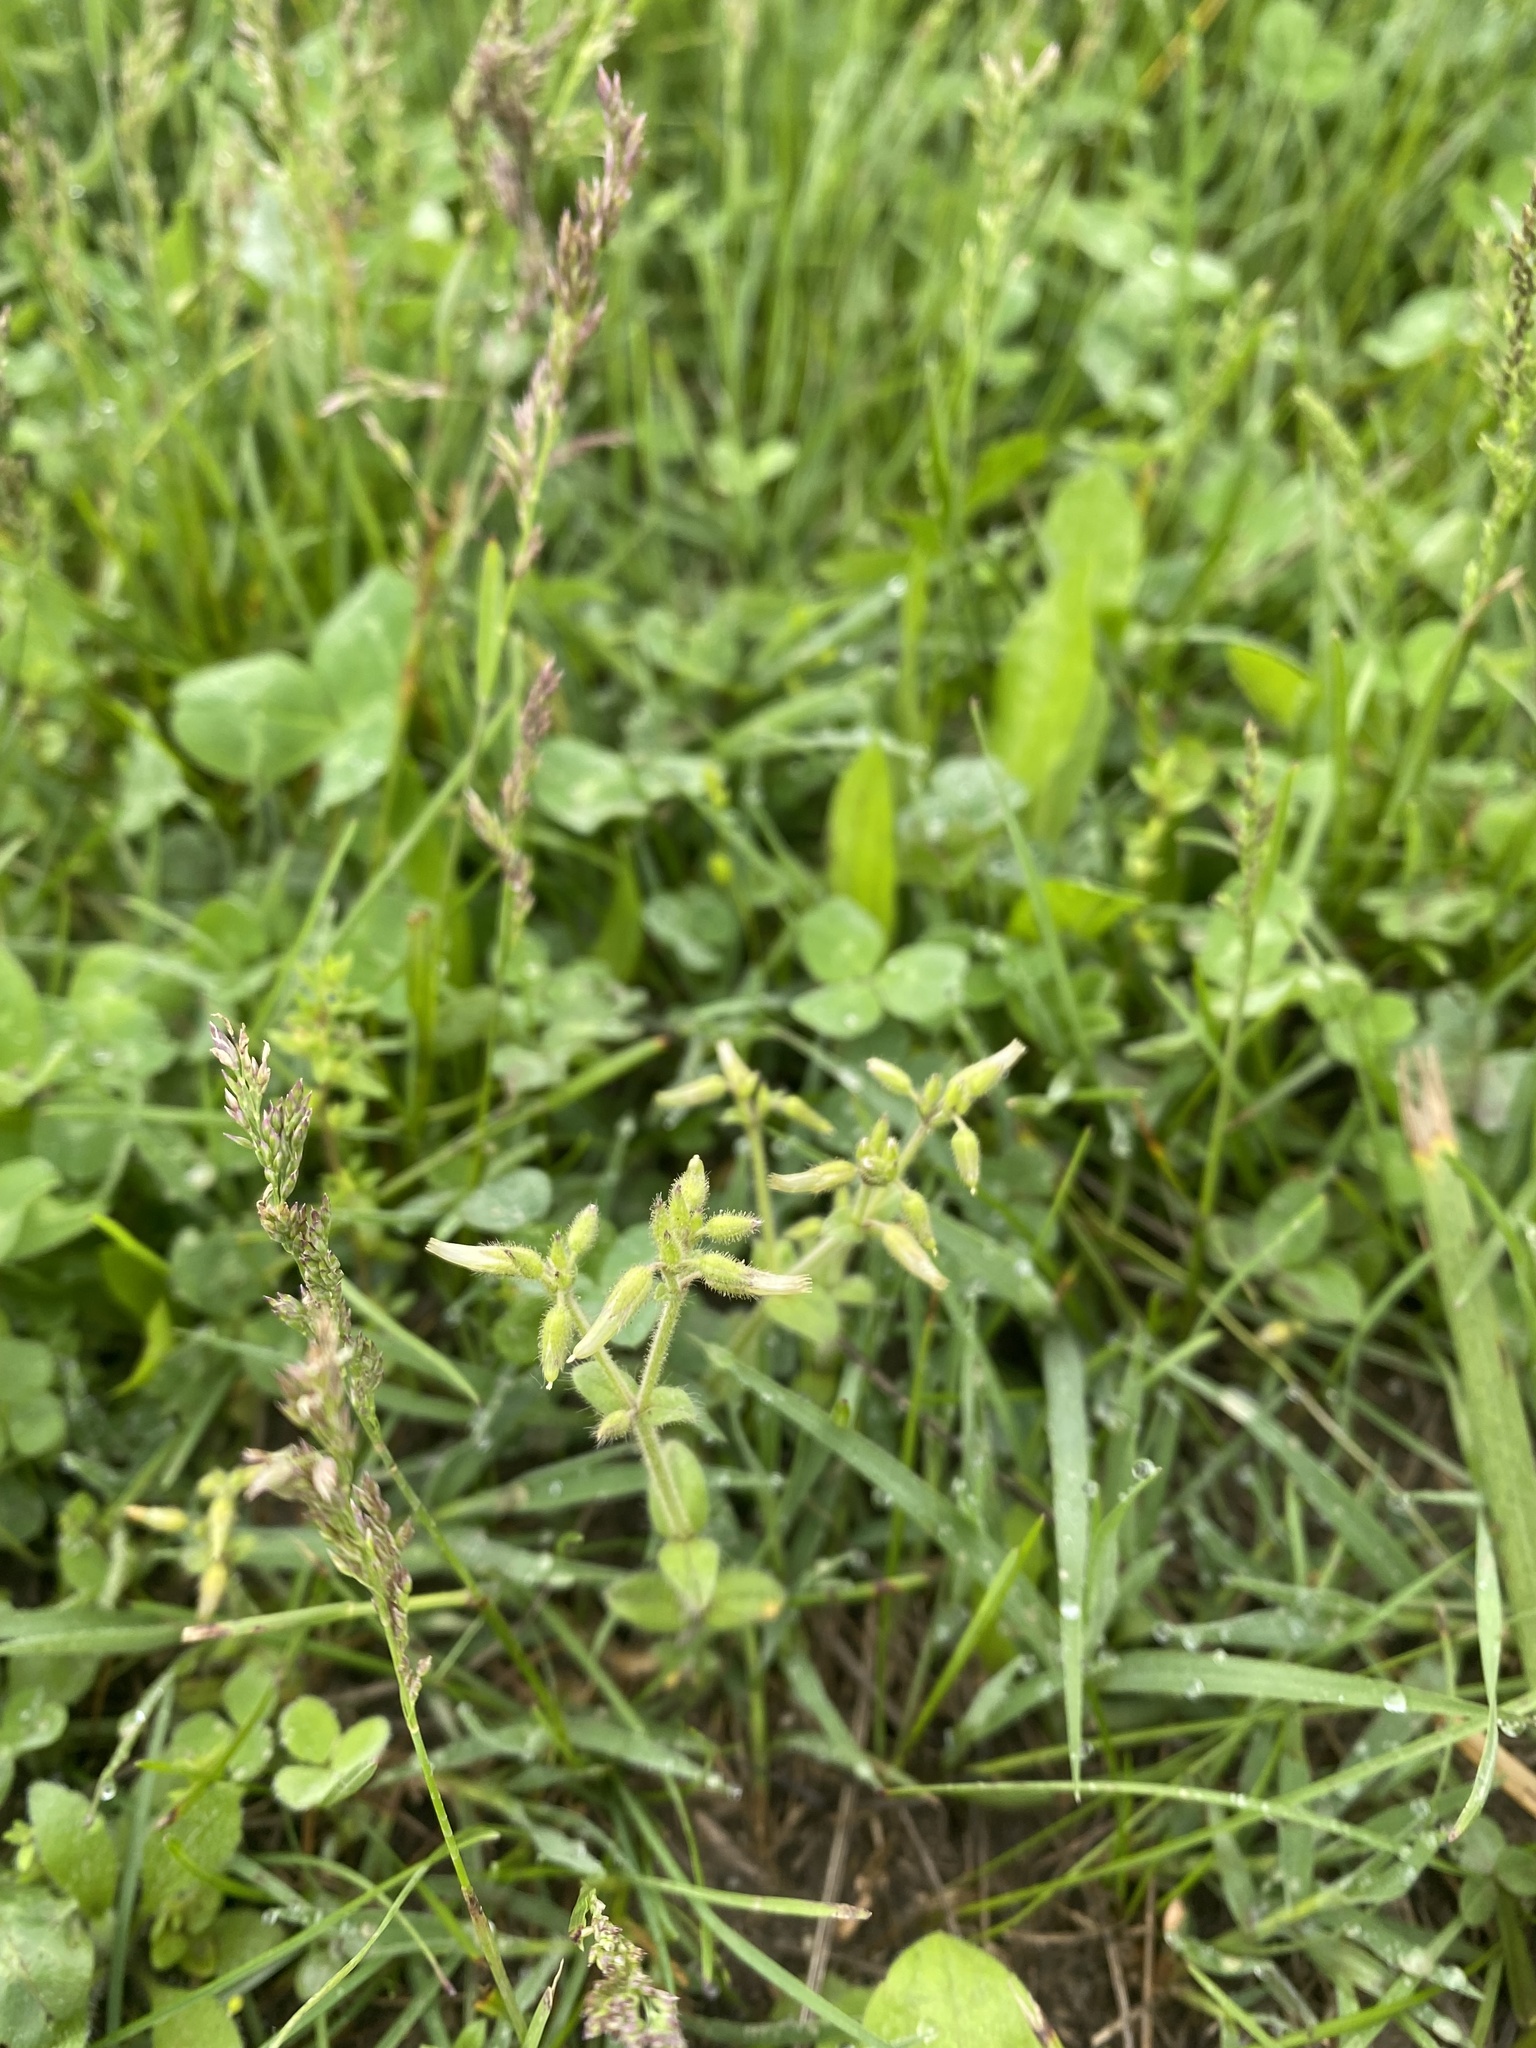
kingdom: Plantae
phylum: Tracheophyta
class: Magnoliopsida
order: Caryophyllales
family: Caryophyllaceae
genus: Cerastium
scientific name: Cerastium glomeratum
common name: Sticky chickweed
